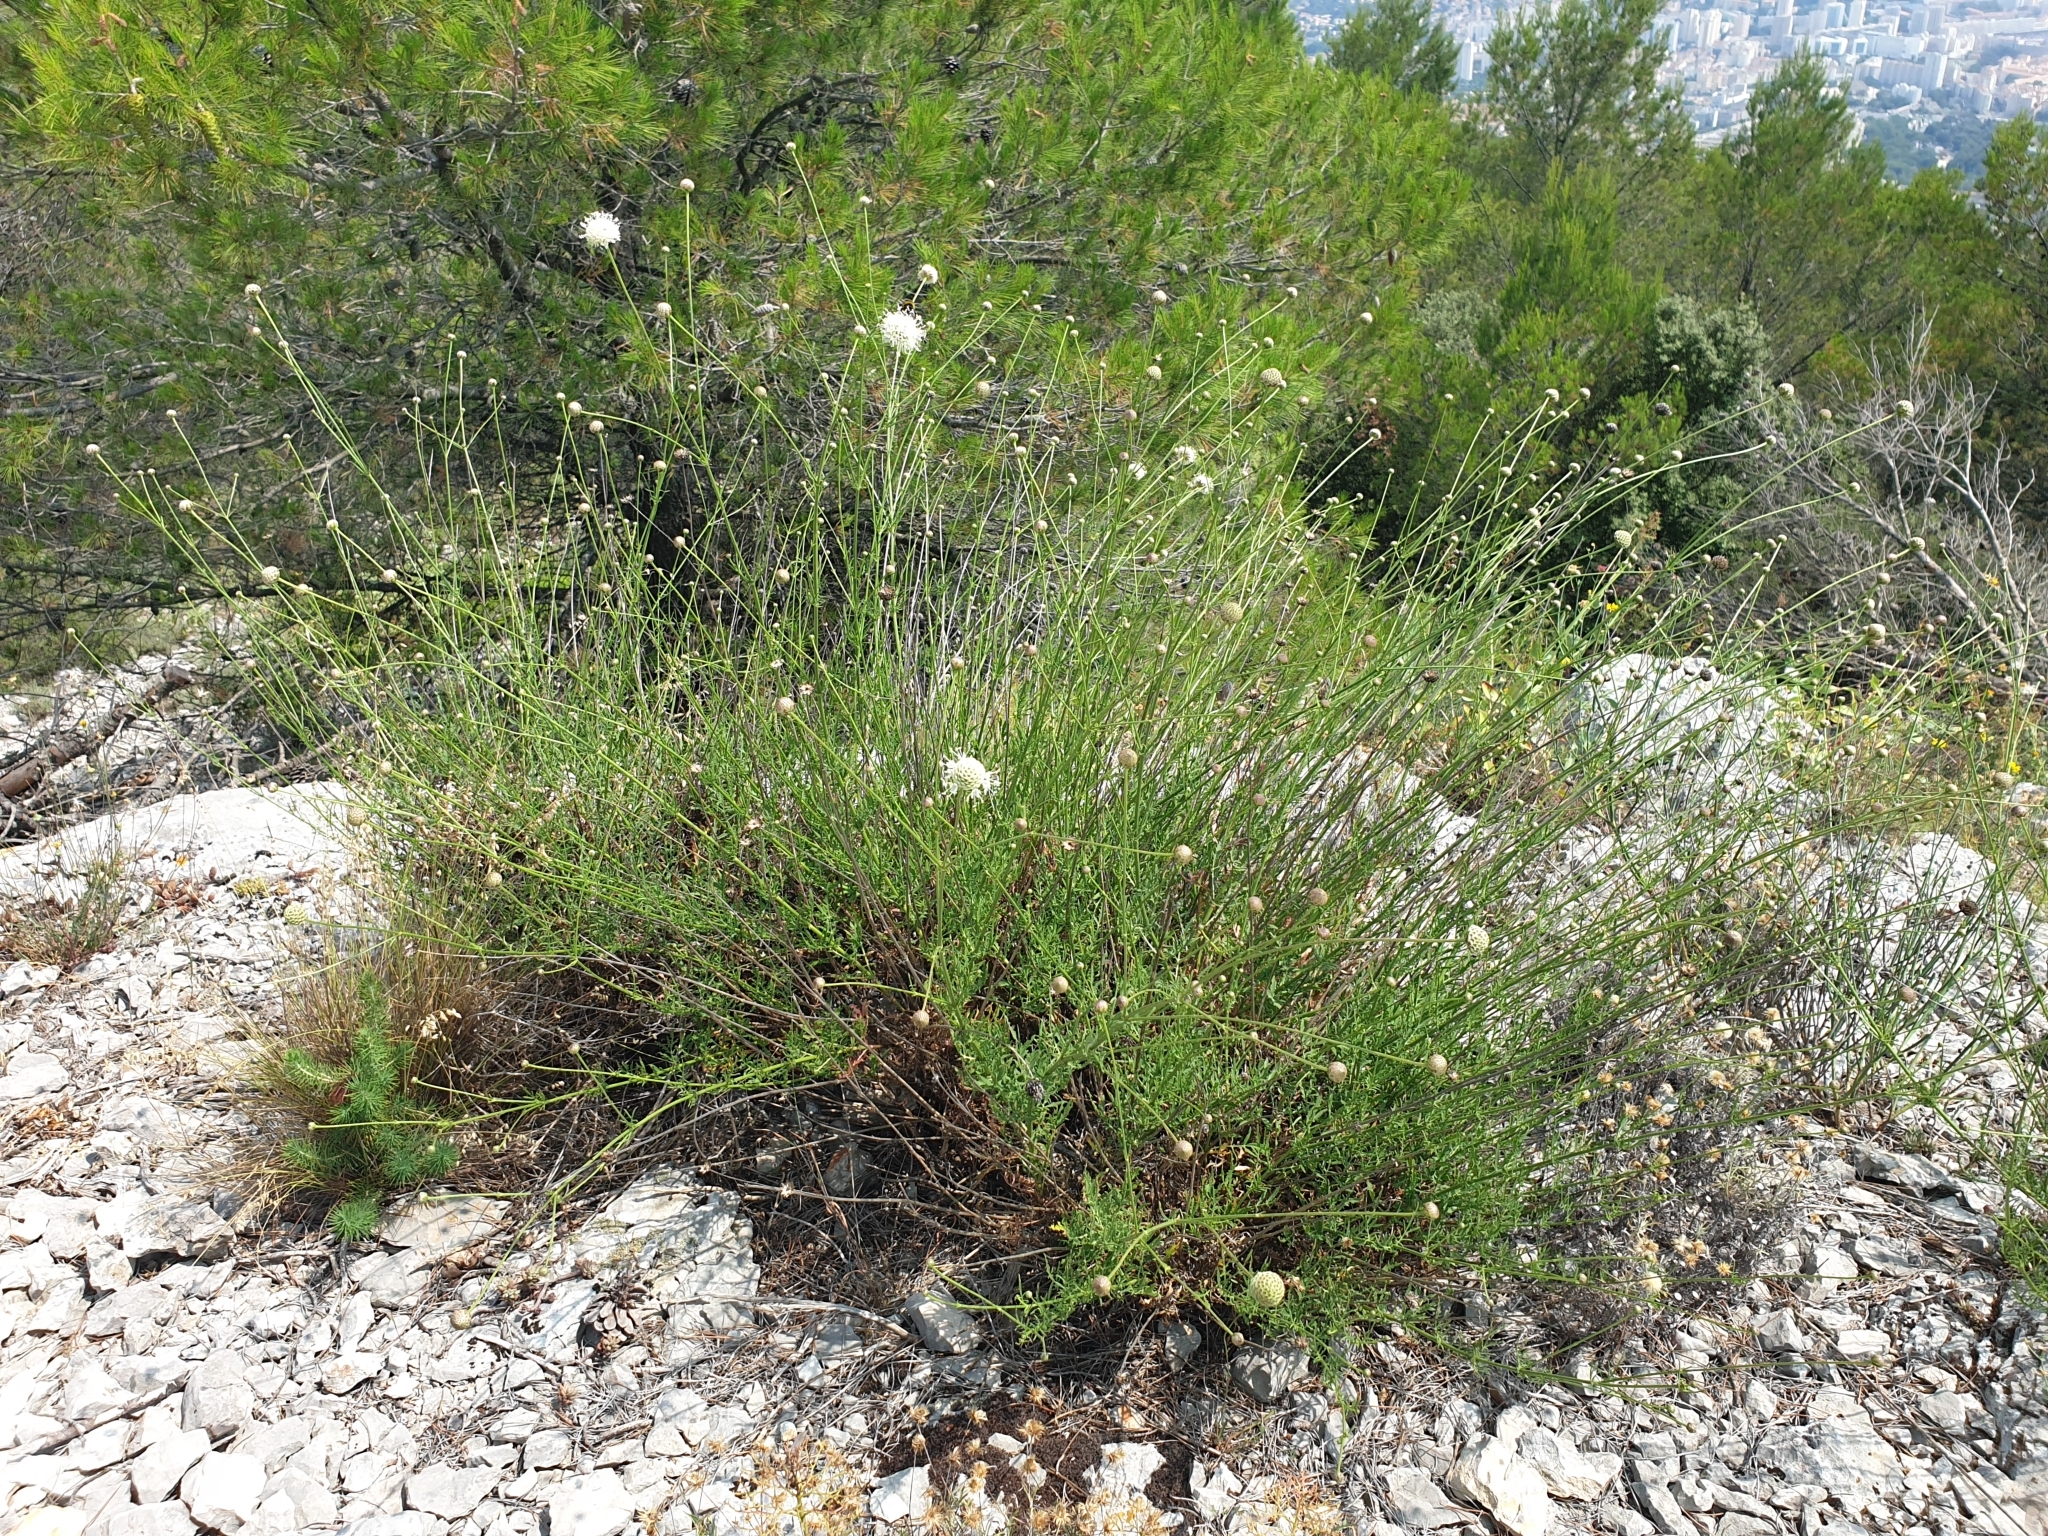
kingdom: Plantae
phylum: Tracheophyta
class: Magnoliopsida
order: Dipsacales
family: Caprifoliaceae
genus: Cephalaria
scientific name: Cephalaria leucantha
